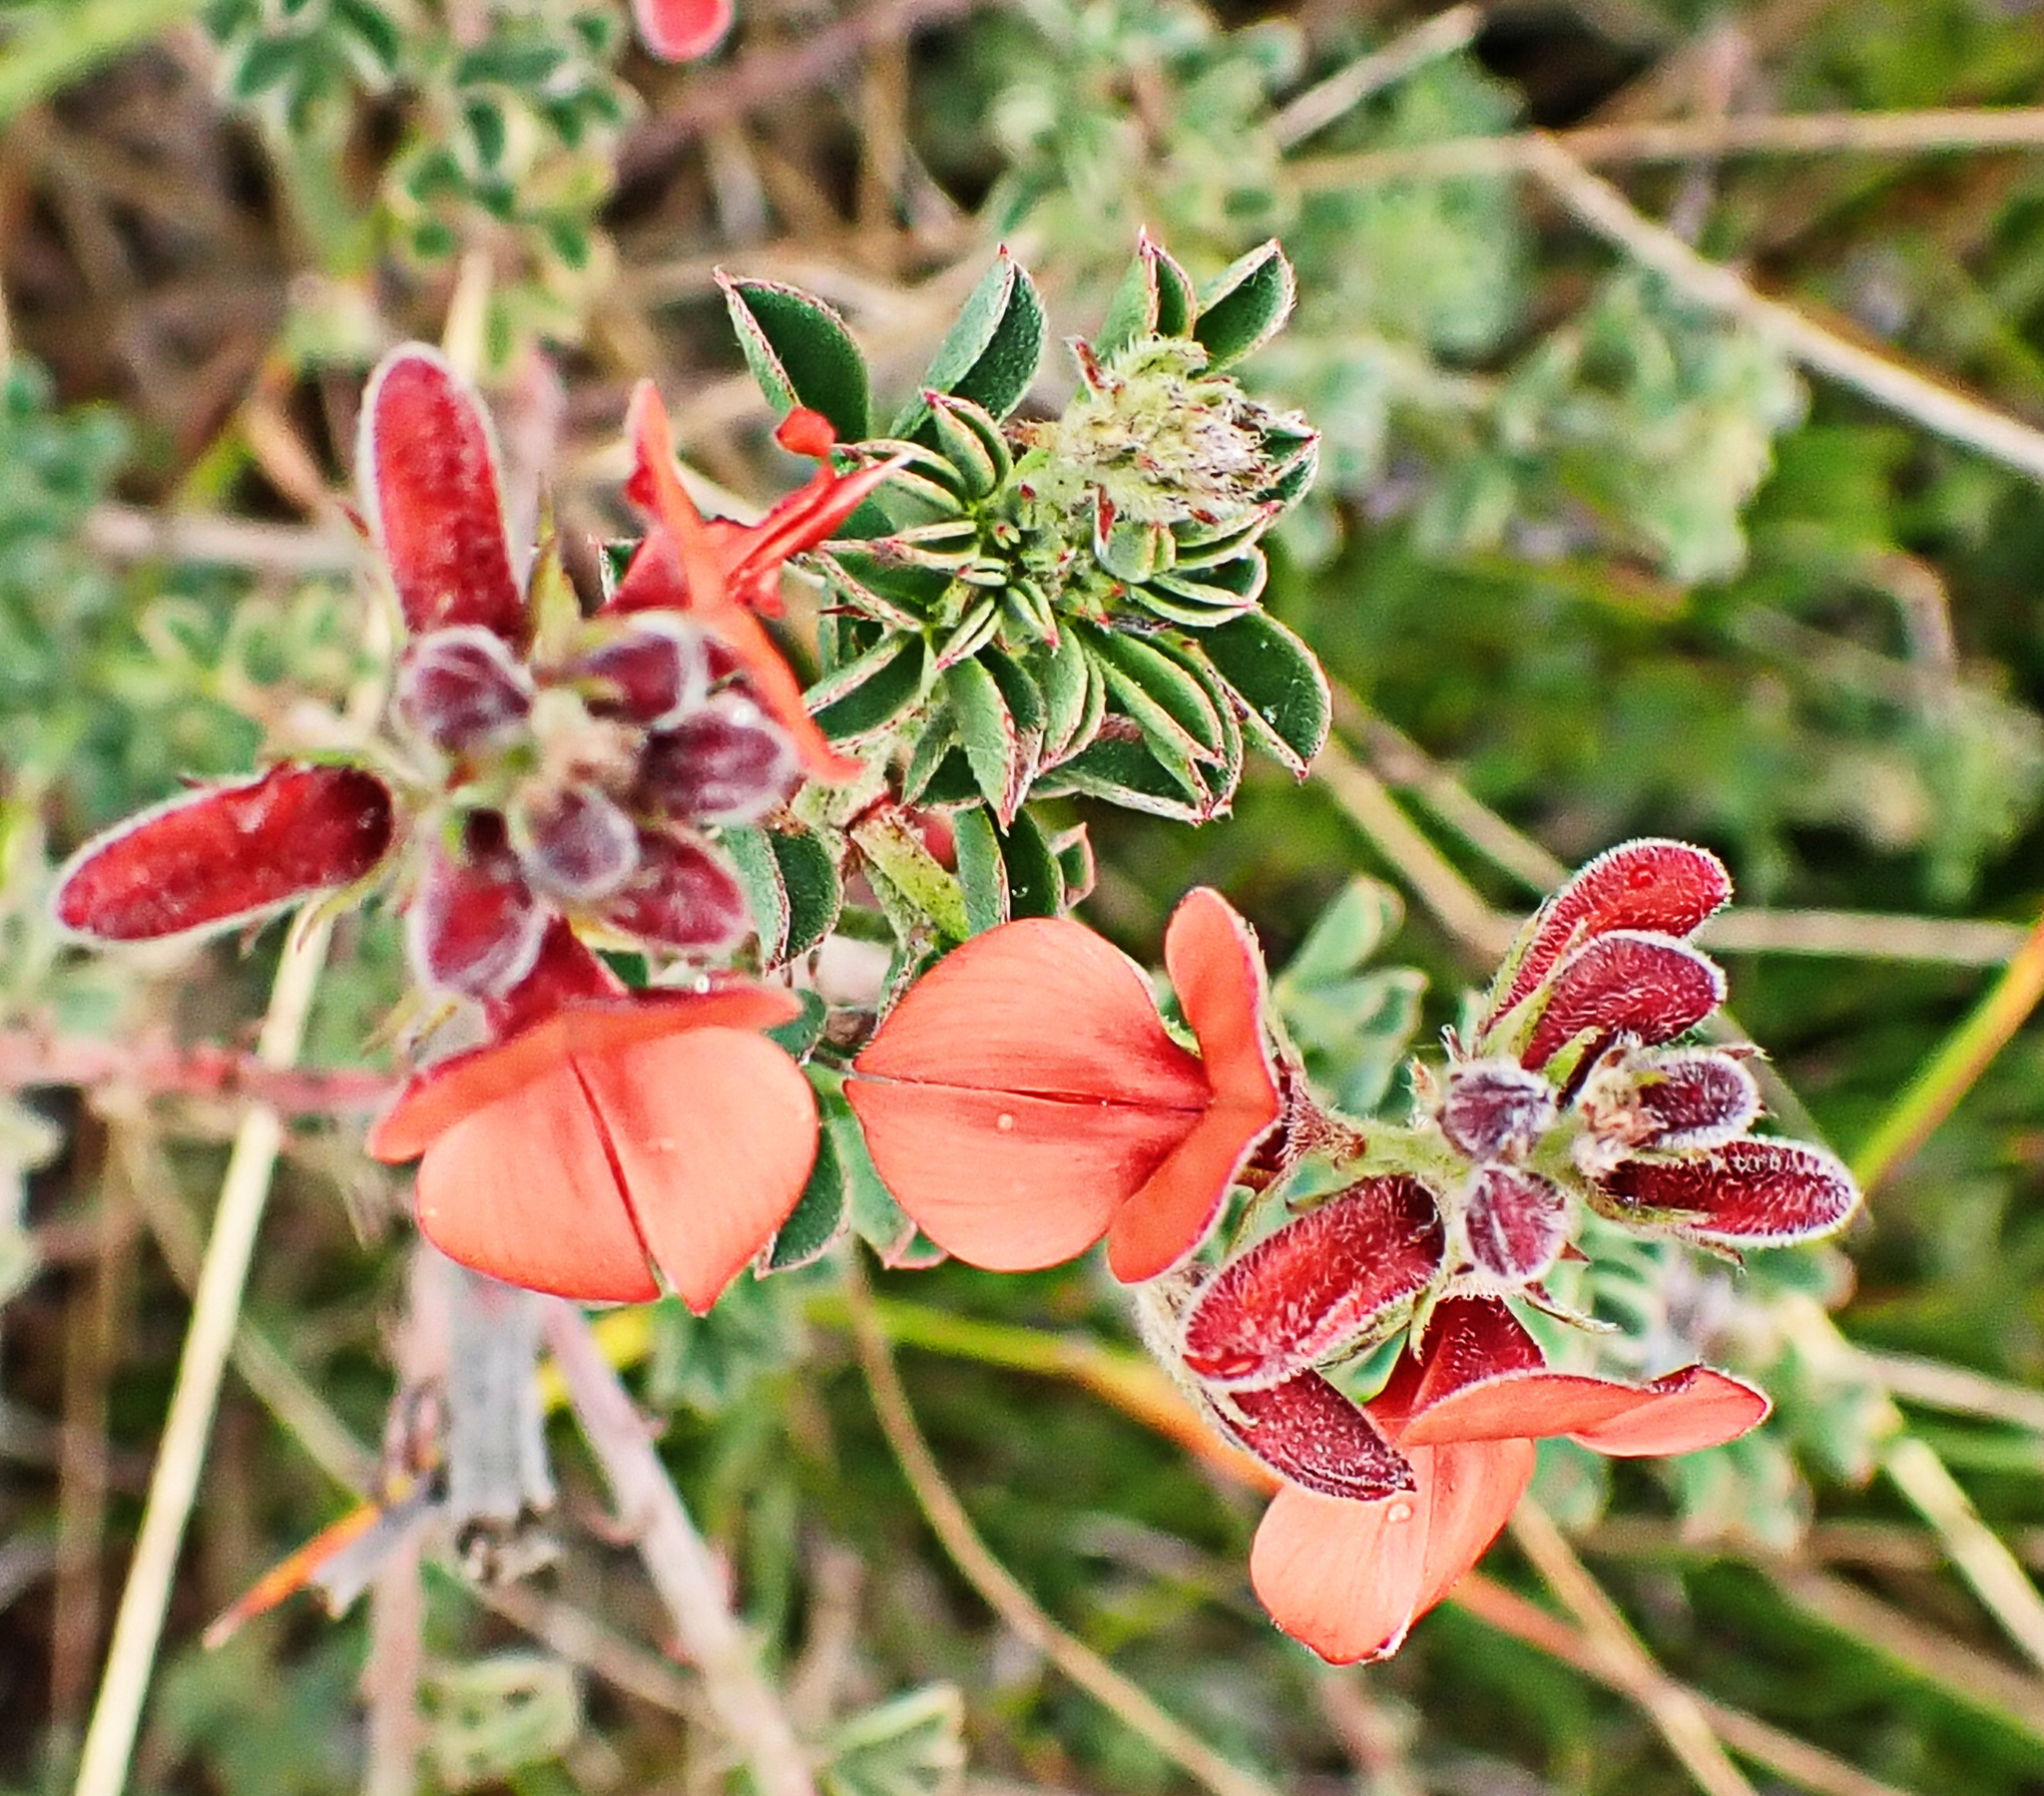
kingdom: Plantae
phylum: Tracheophyta
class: Magnoliopsida
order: Fabales
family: Fabaceae
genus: Indigofera
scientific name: Indigofera heterophylla
